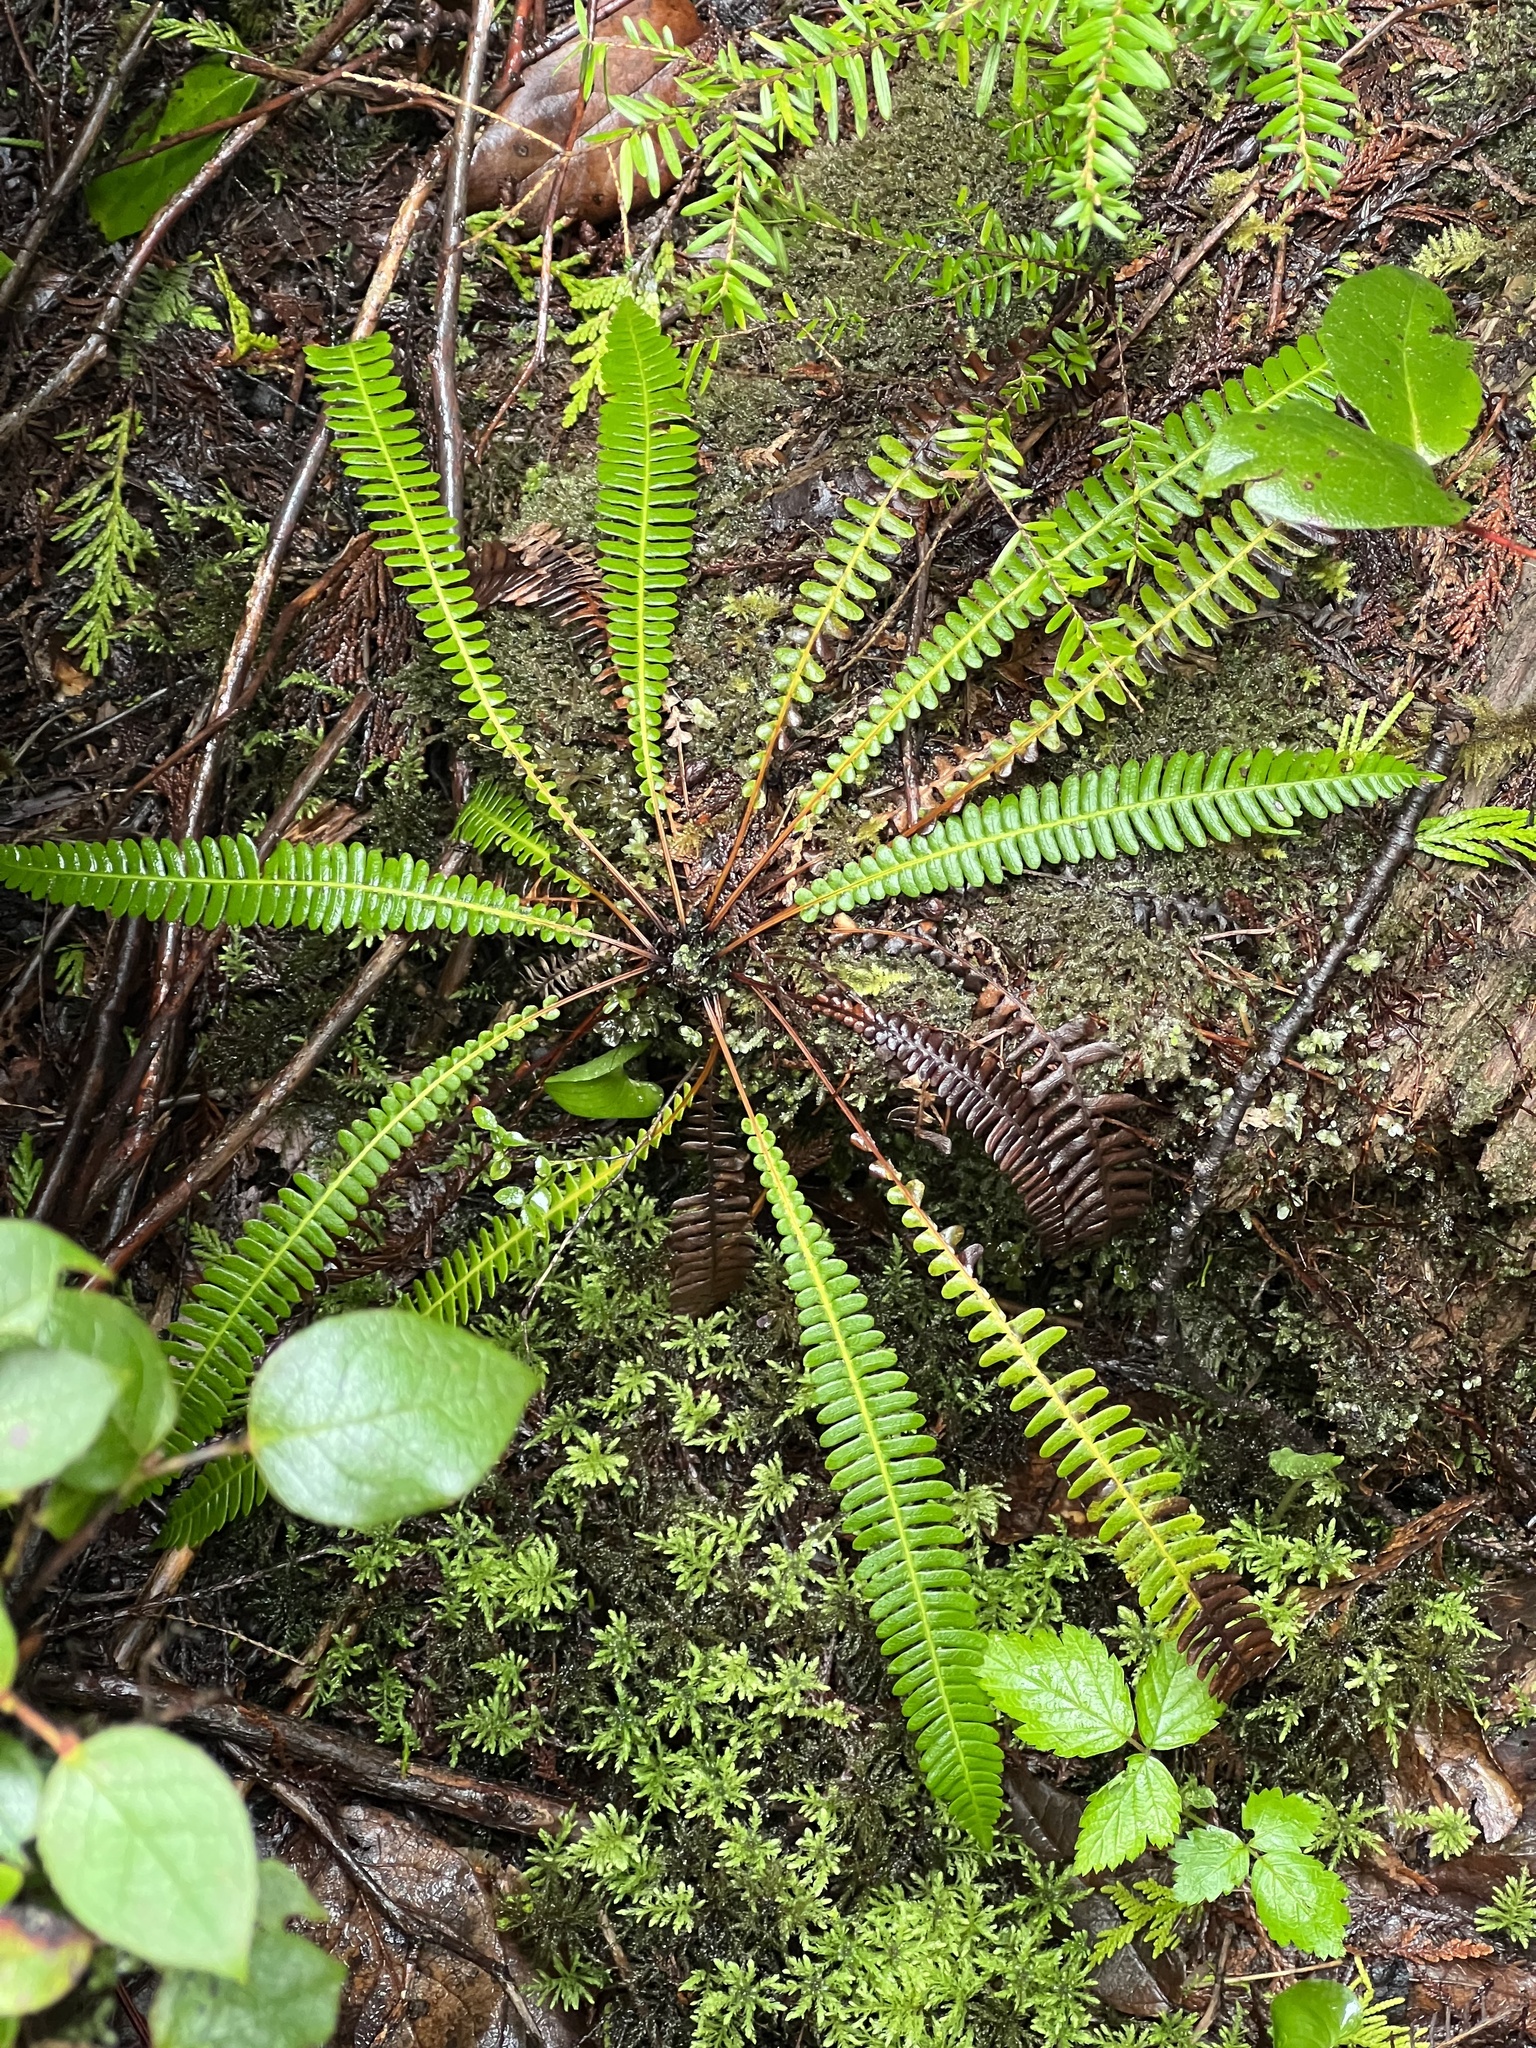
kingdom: Plantae
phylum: Tracheophyta
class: Polypodiopsida
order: Polypodiales
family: Blechnaceae
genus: Struthiopteris
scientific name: Struthiopteris spicant
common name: Deer fern
